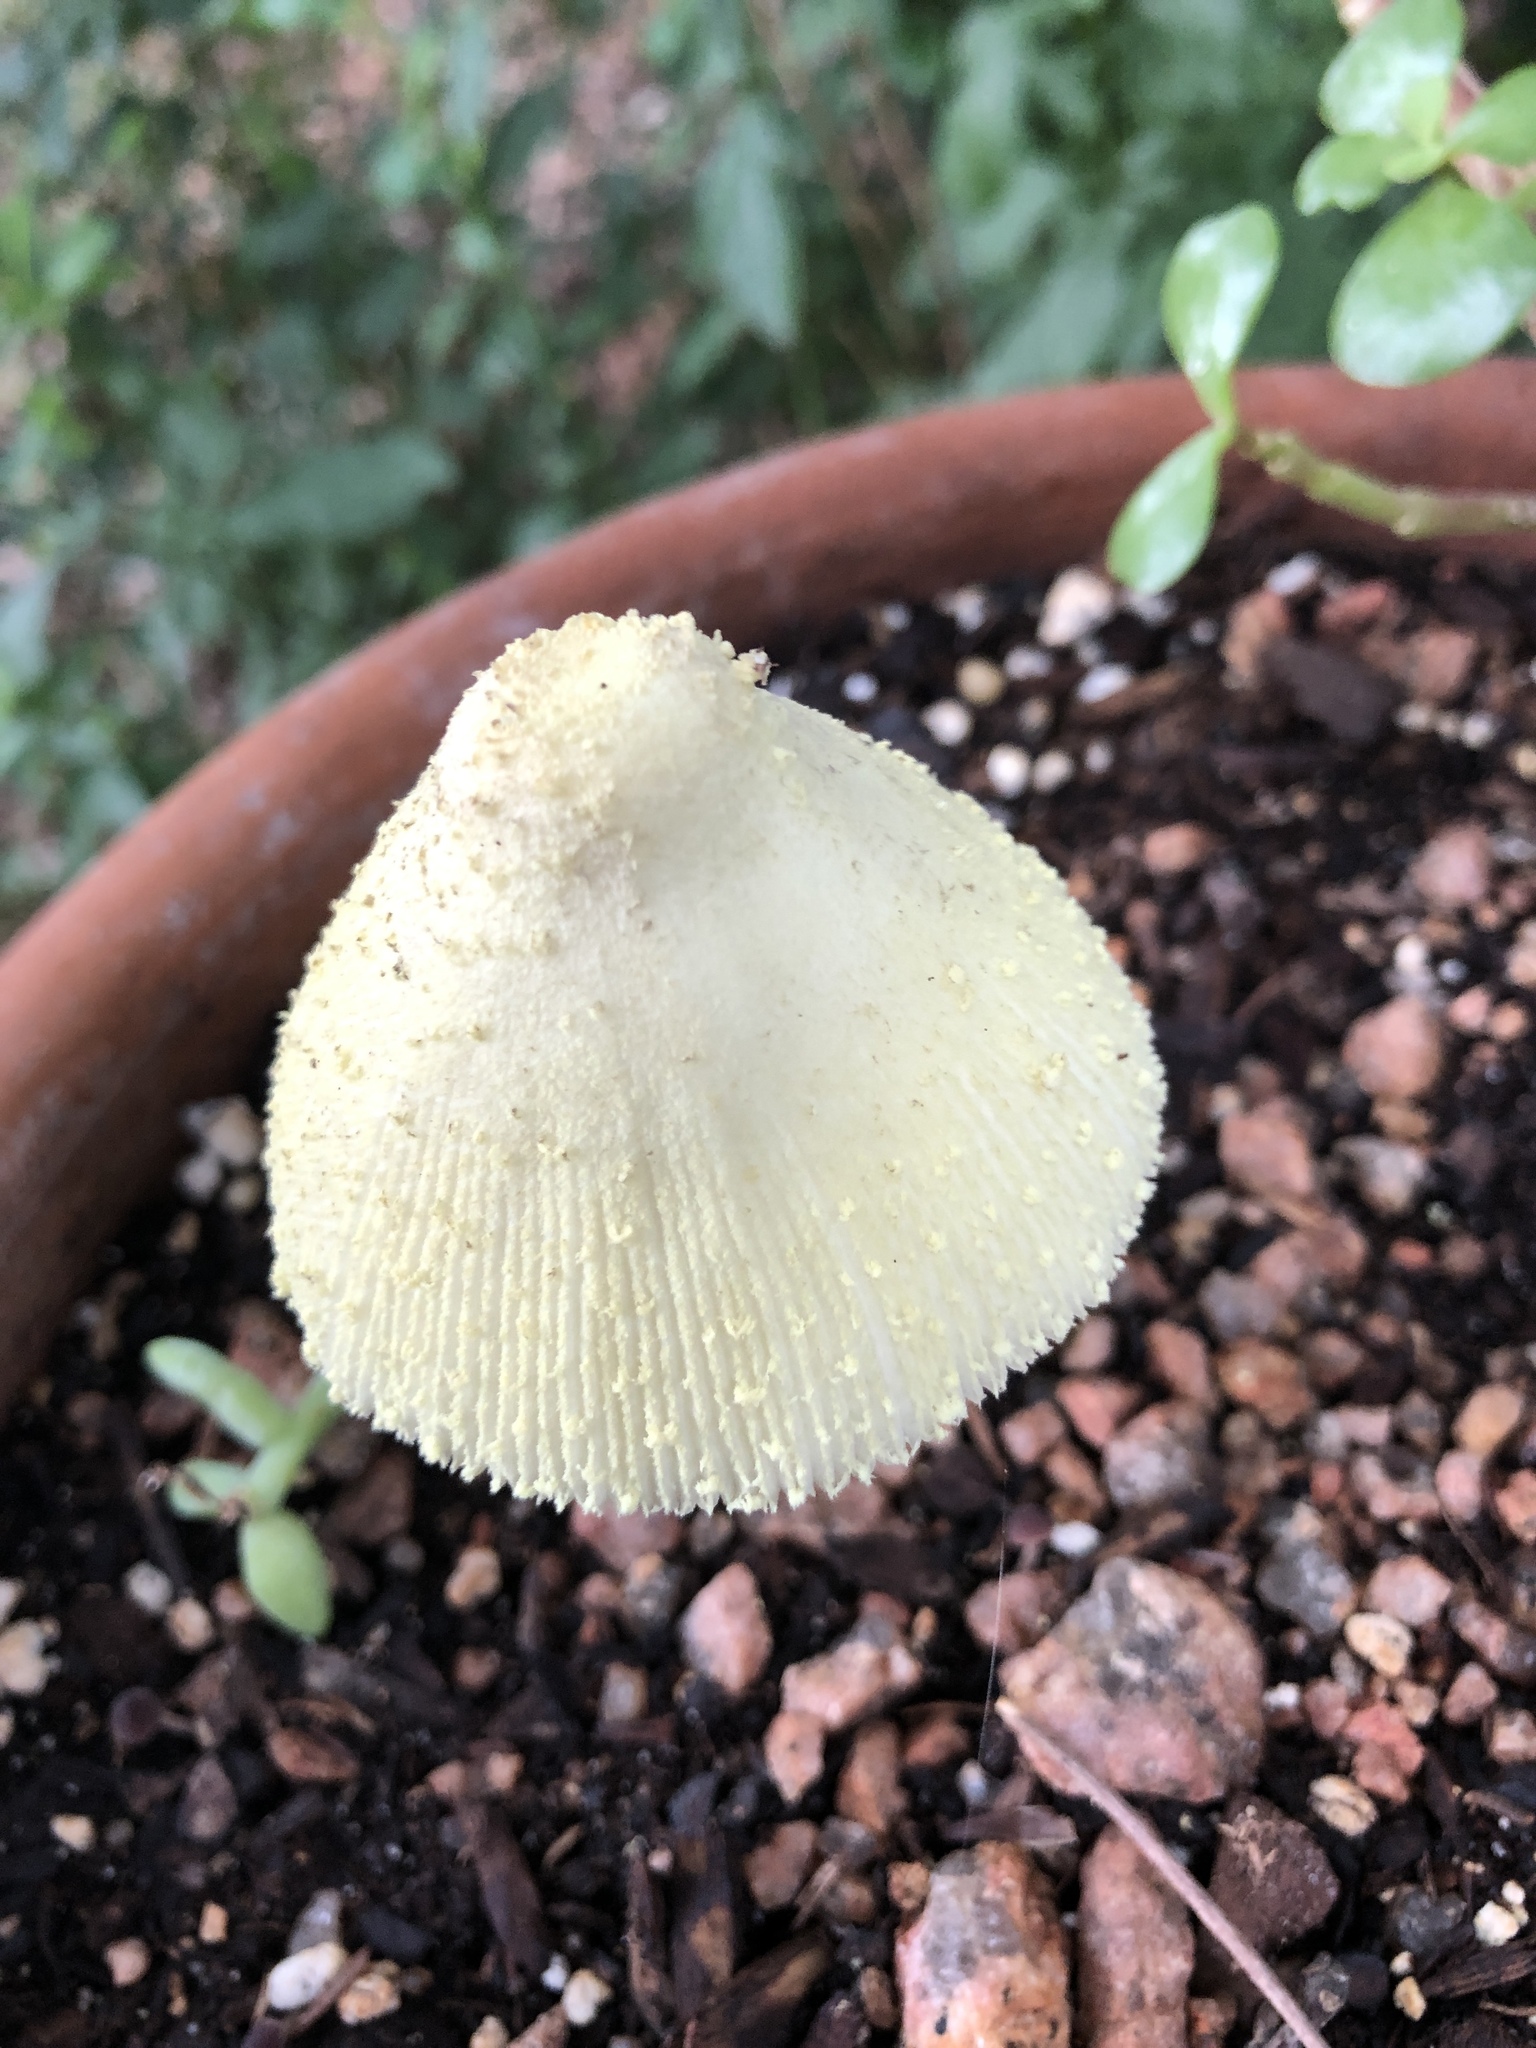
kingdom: Fungi
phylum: Basidiomycota
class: Agaricomycetes
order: Agaricales
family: Agaricaceae
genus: Leucocoprinus
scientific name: Leucocoprinus birnbaumii
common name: Plantpot dapperling
